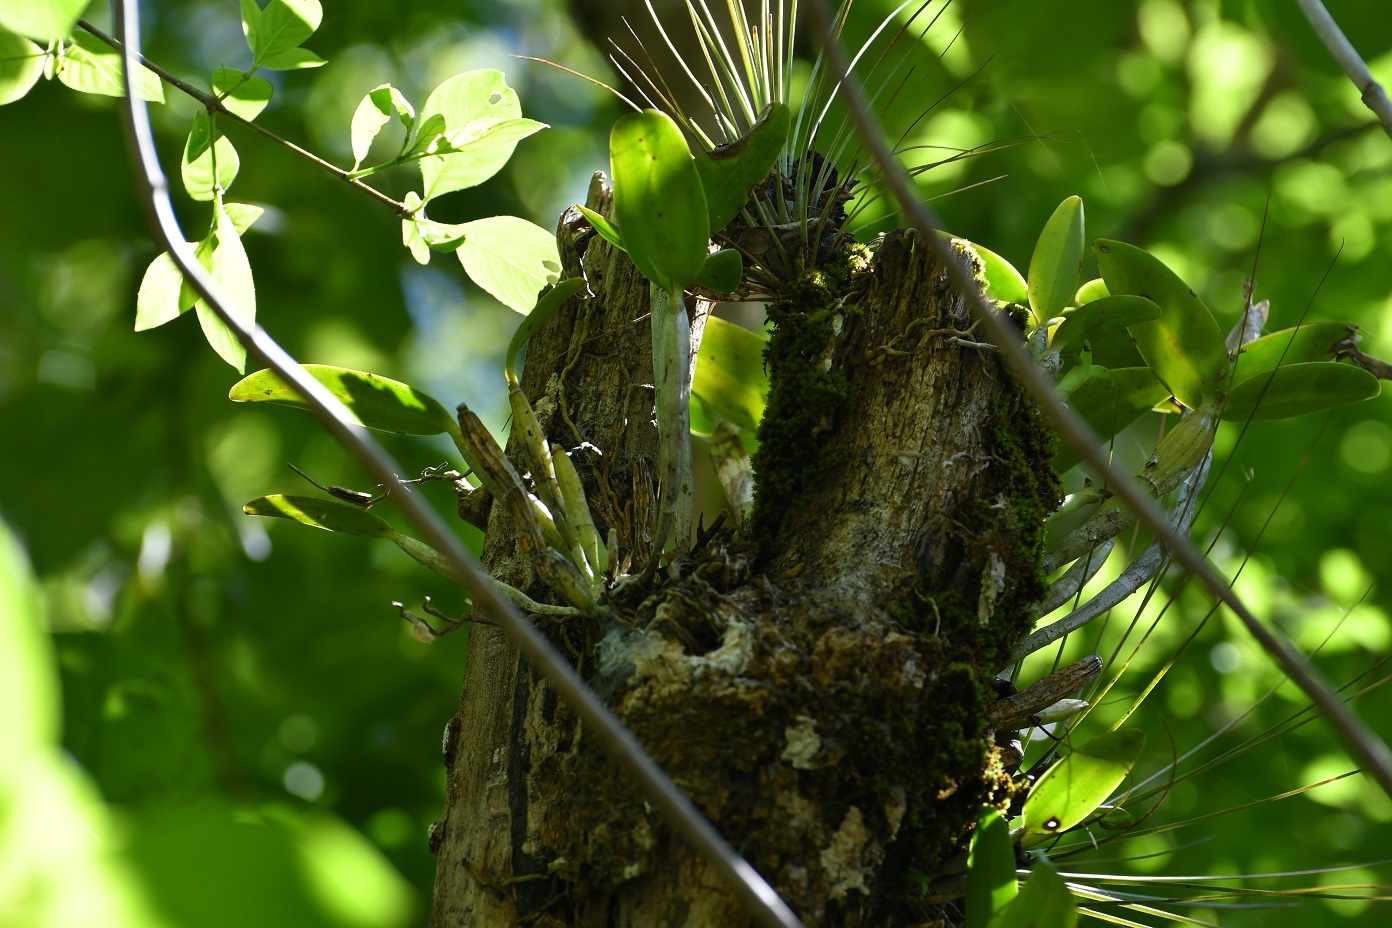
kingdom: Plantae
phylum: Tracheophyta
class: Liliopsida
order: Asparagales
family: Orchidaceae
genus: Guarianthe
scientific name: Guarianthe aurantiaca
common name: Orange cattleya
